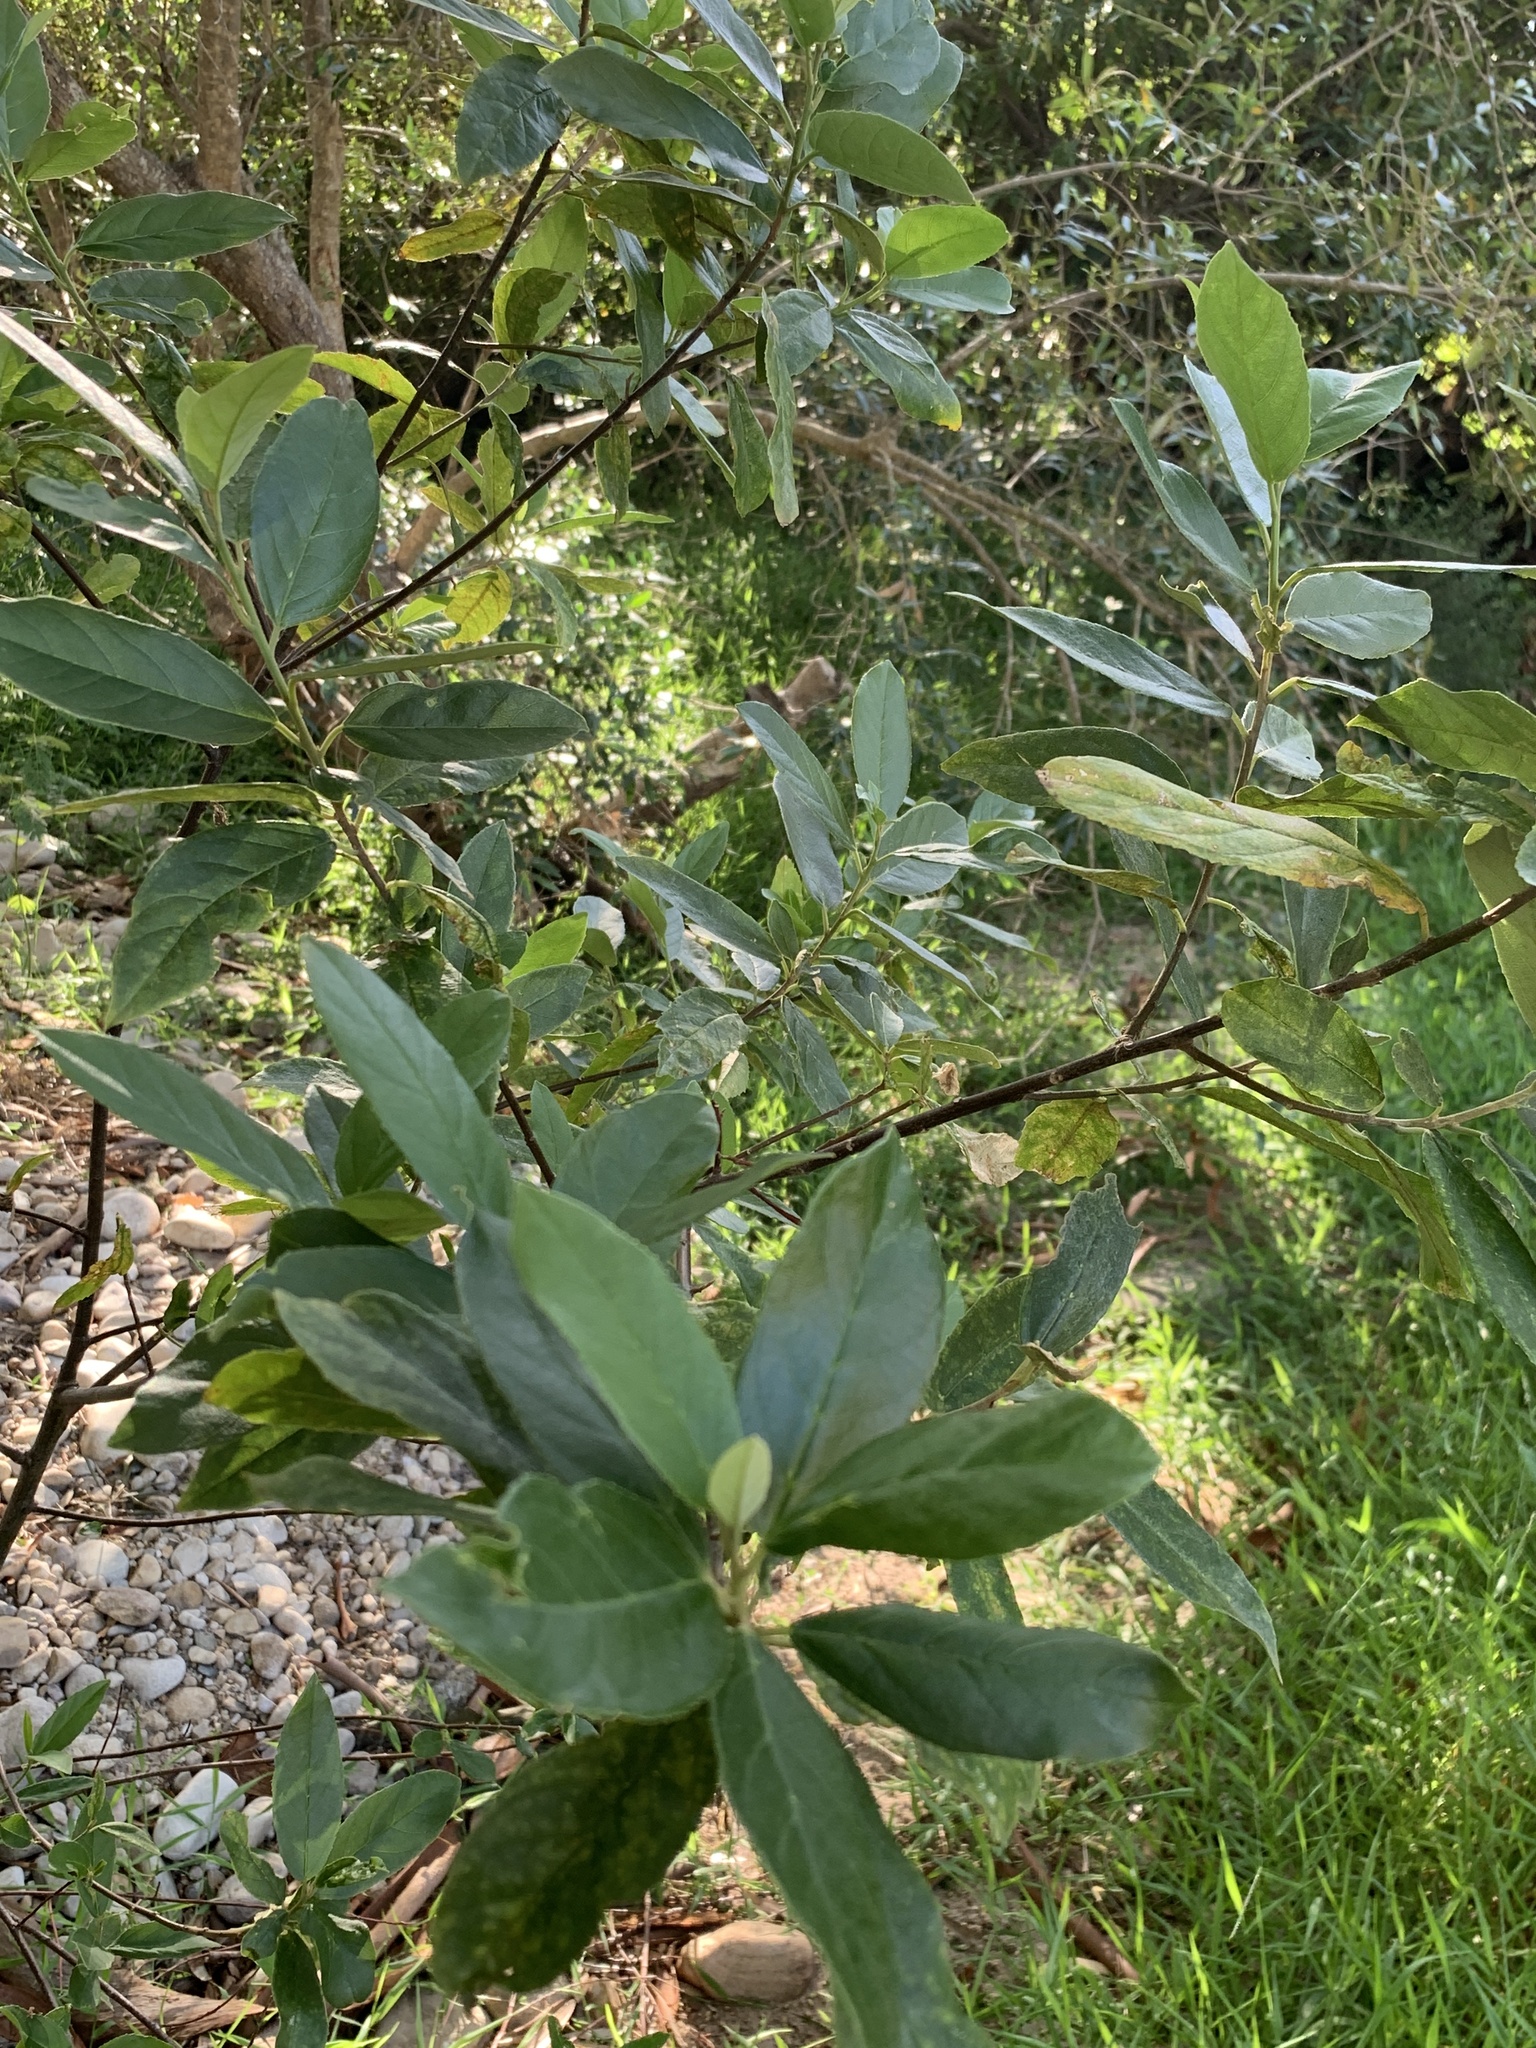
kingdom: Plantae
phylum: Tracheophyta
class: Magnoliopsida
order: Malpighiales
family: Achariaceae
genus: Kiggelaria
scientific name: Kiggelaria africana
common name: Wild peach
